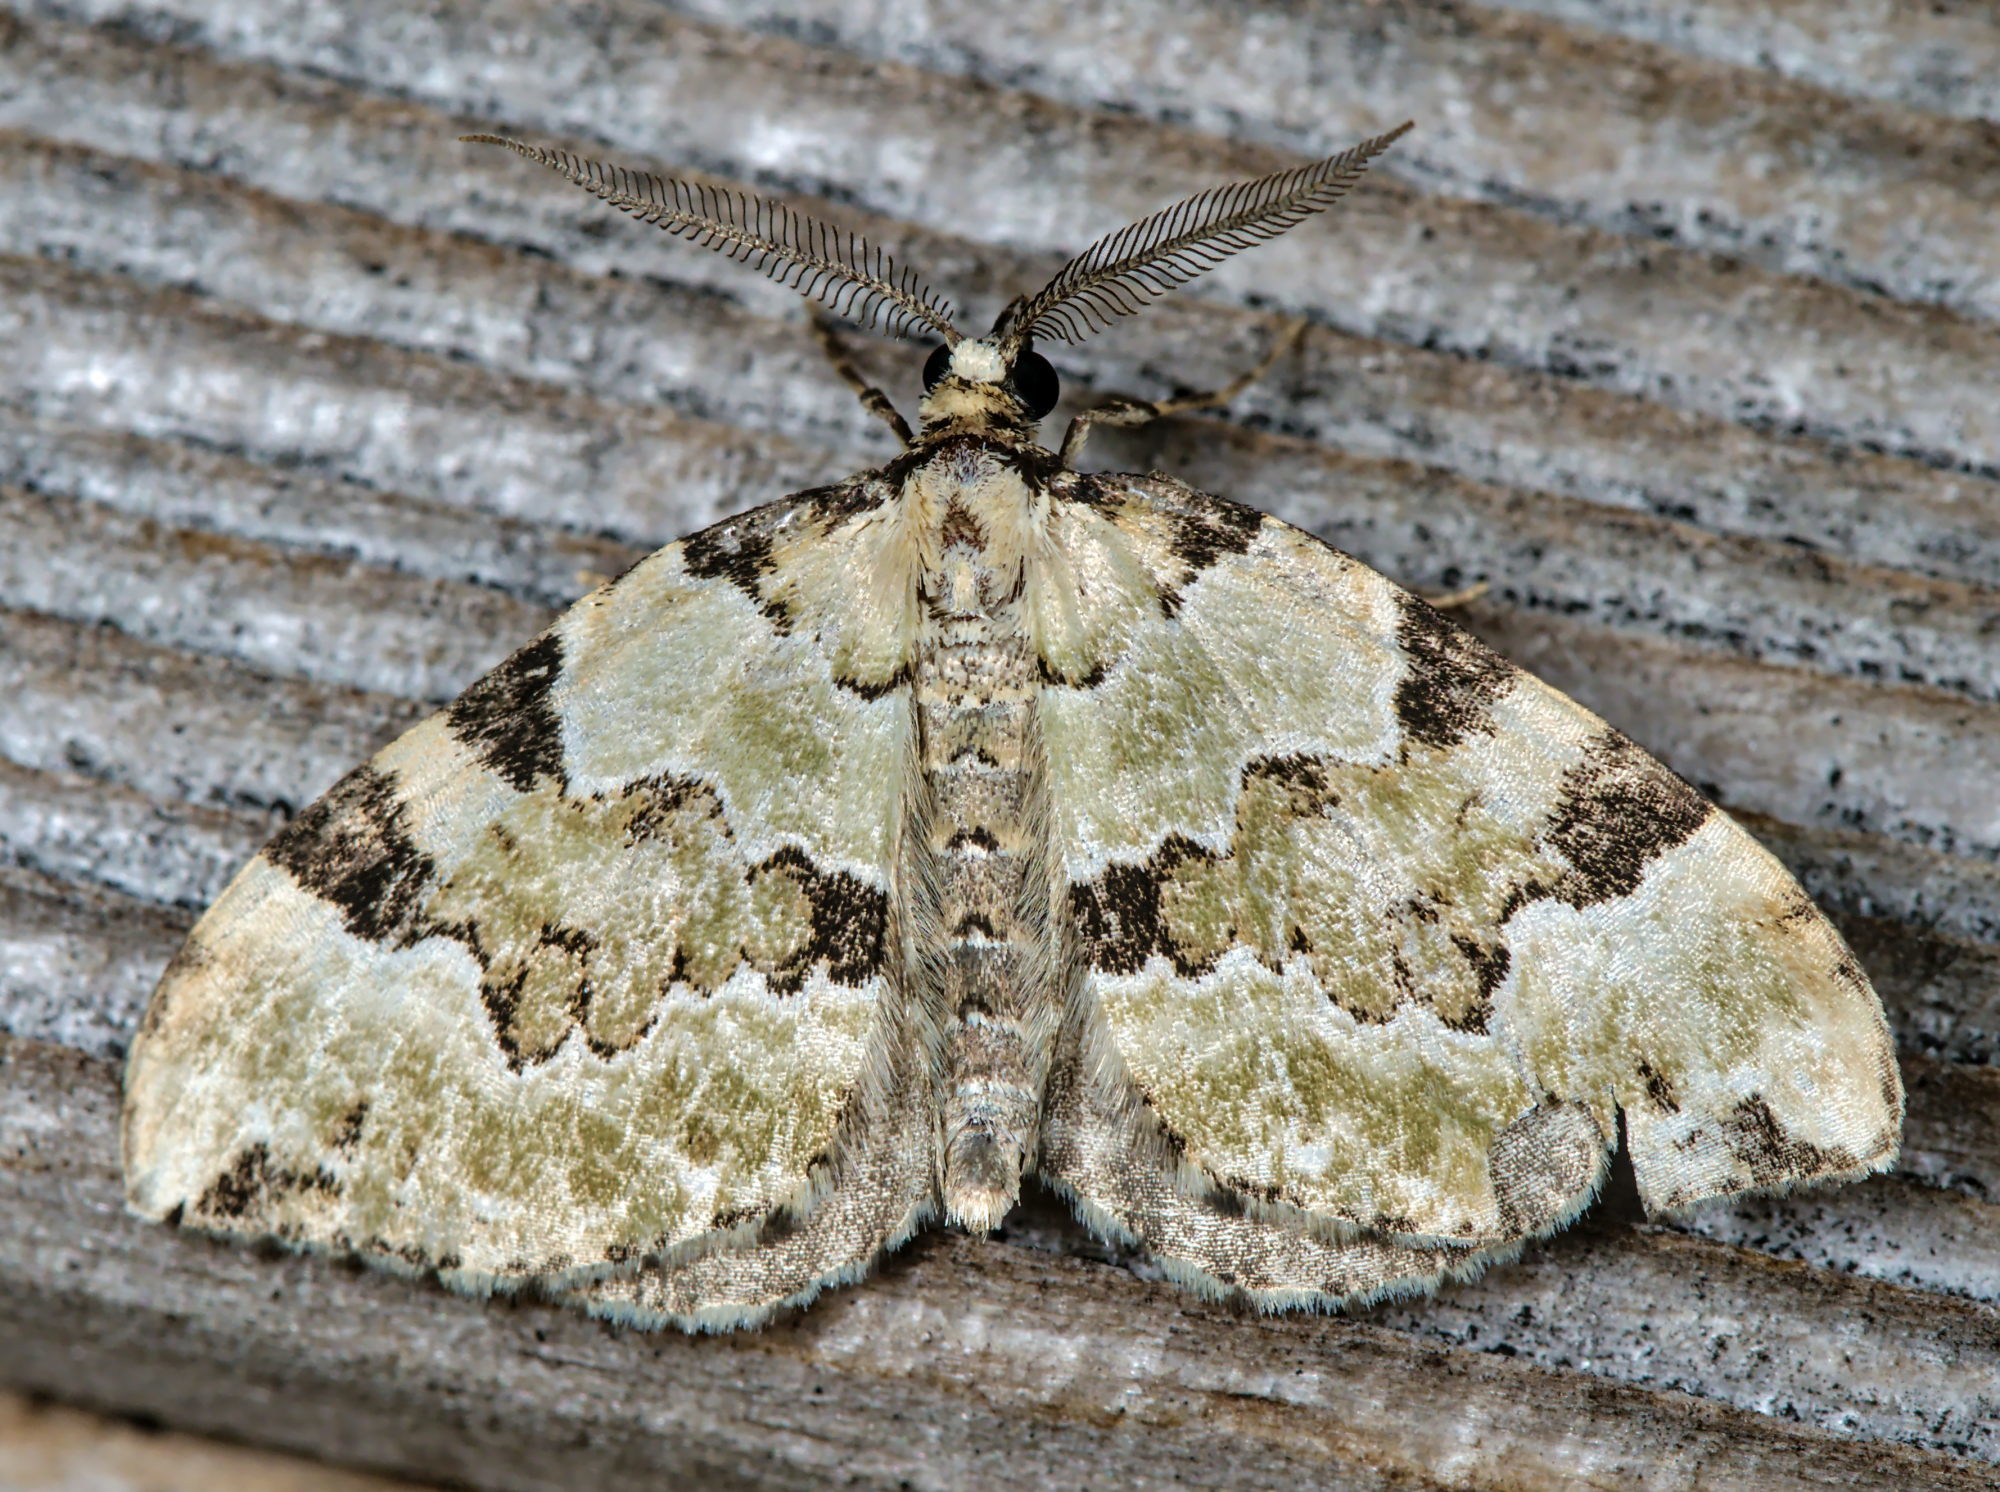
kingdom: Animalia
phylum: Arthropoda
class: Insecta
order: Lepidoptera
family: Geometridae
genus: Colostygia
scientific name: Colostygia pectinataria
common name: Green carpet
